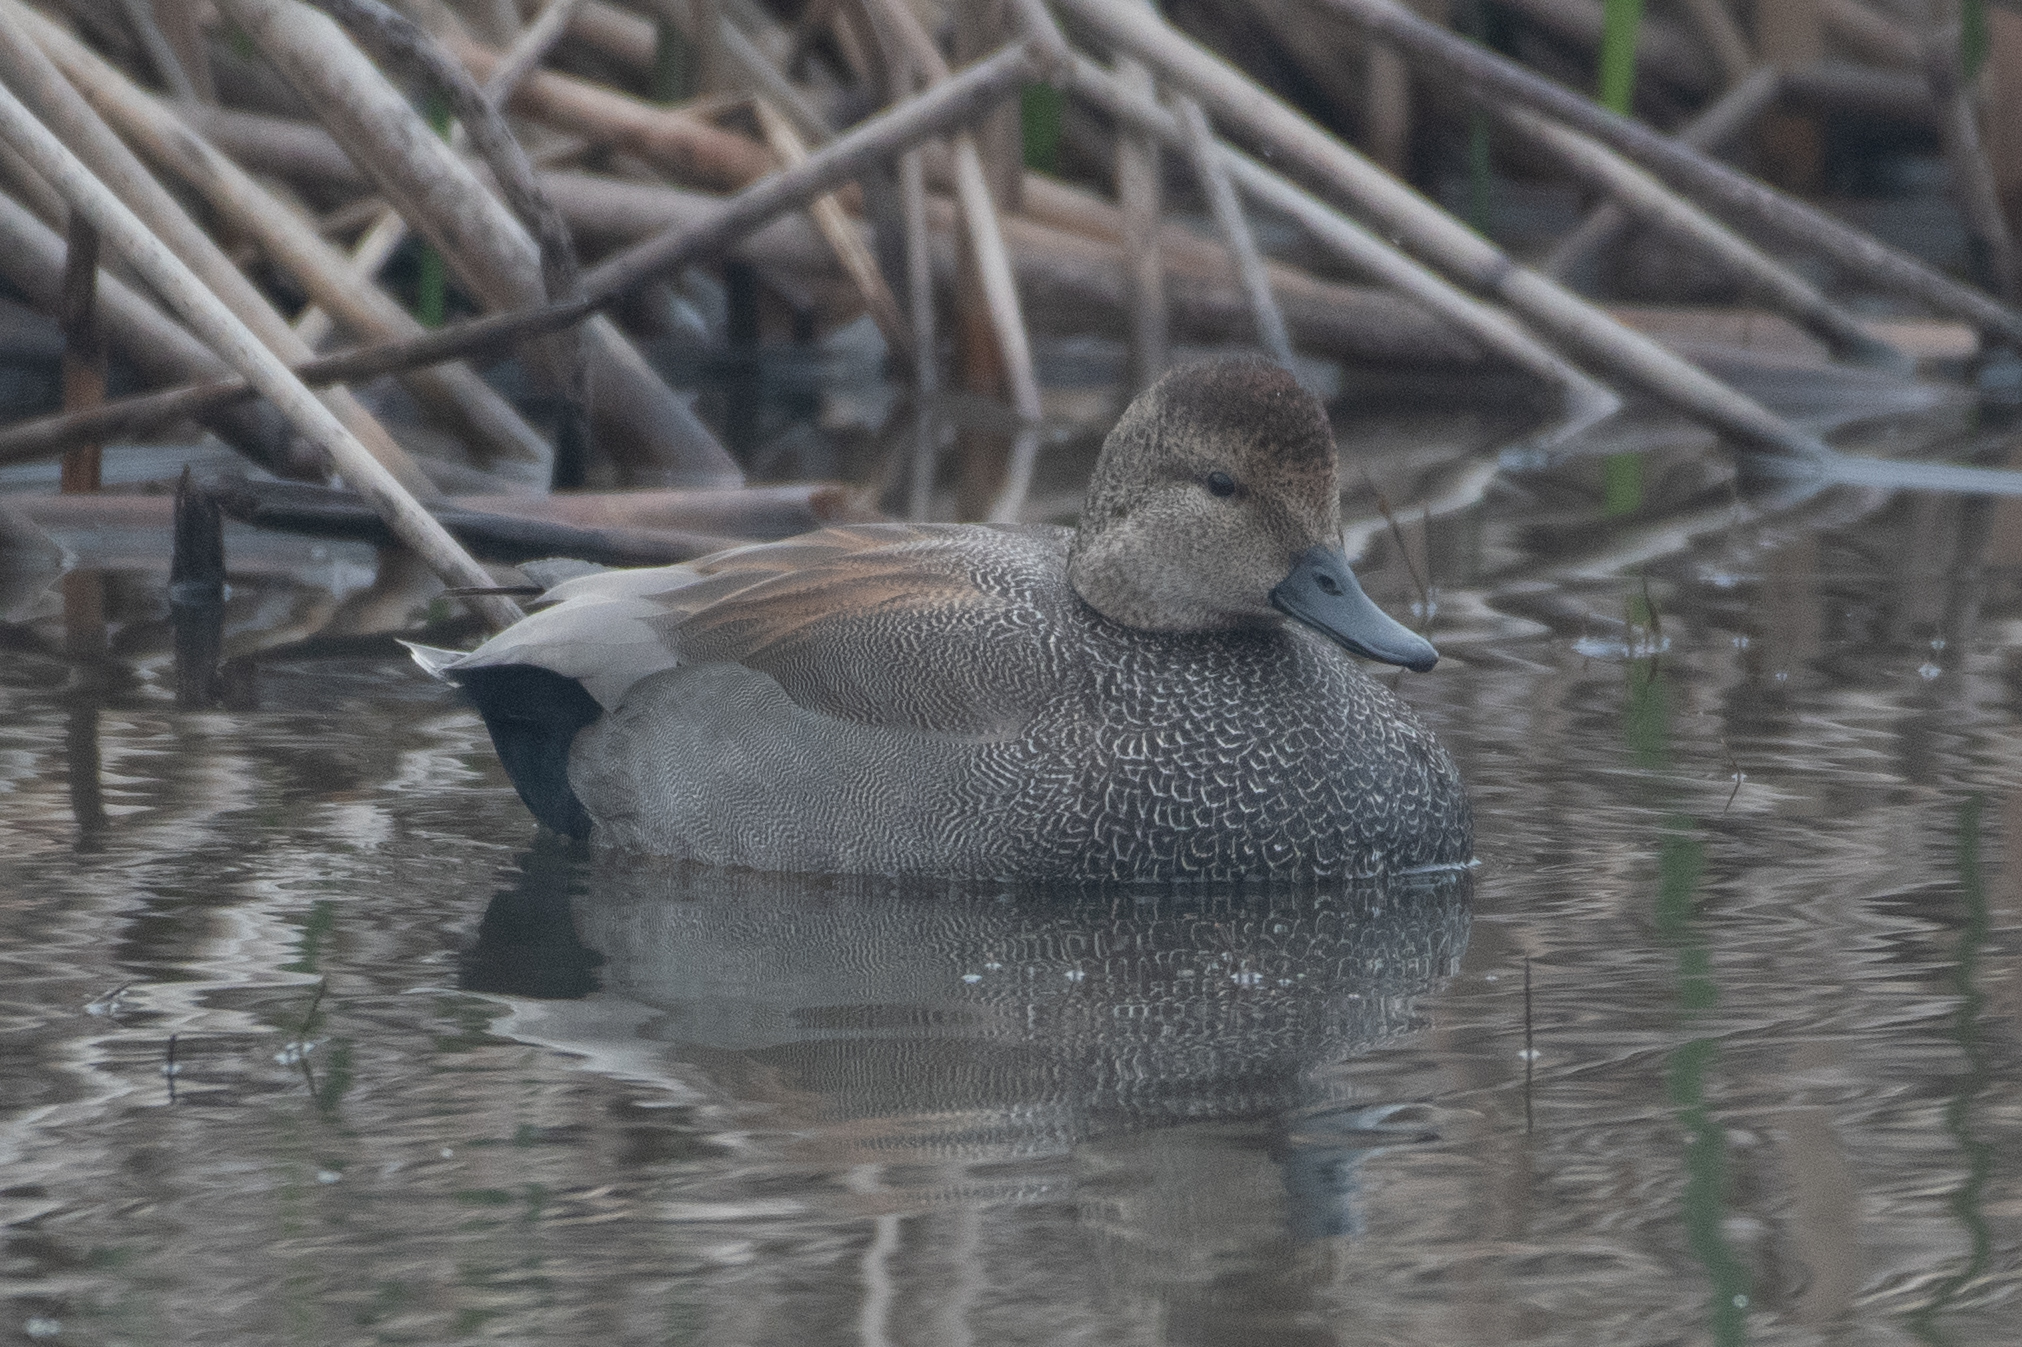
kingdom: Animalia
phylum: Chordata
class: Aves
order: Anseriformes
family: Anatidae
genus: Mareca
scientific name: Mareca strepera
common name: Gadwall
